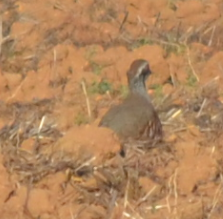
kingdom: Animalia
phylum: Chordata
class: Aves
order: Galliformes
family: Phasianidae
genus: Alectoris
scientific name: Alectoris rufa
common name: Red-legged partridge
